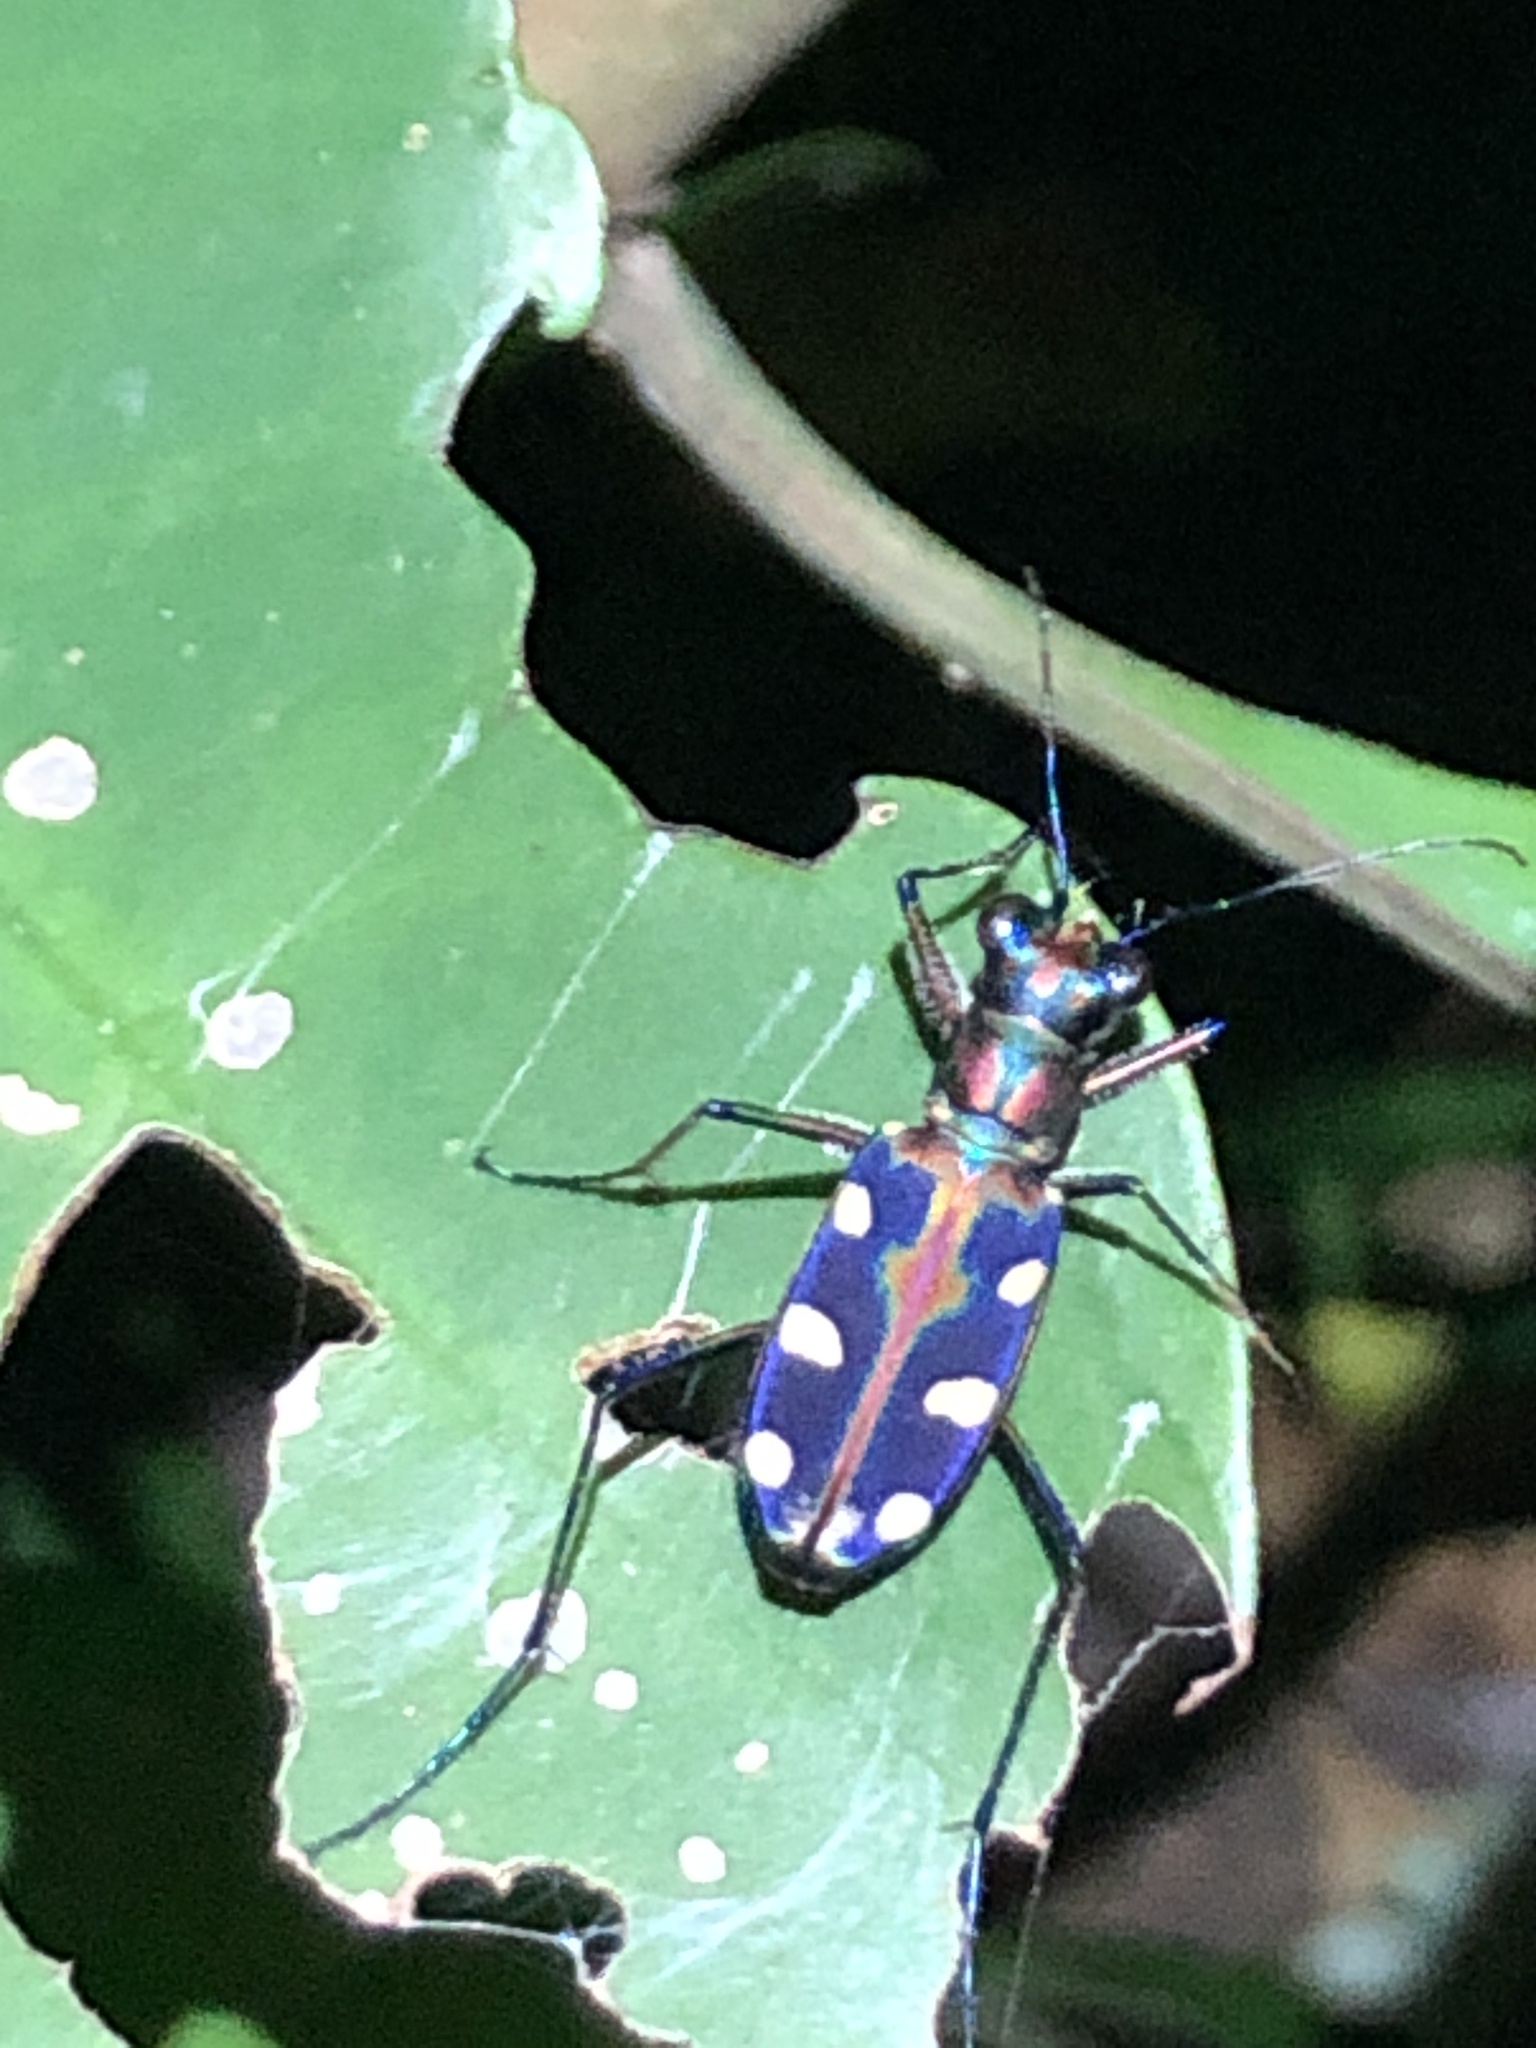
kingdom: Animalia
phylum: Arthropoda
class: Insecta
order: Coleoptera
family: Carabidae
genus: Cicindela
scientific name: Cicindela aurulenta
